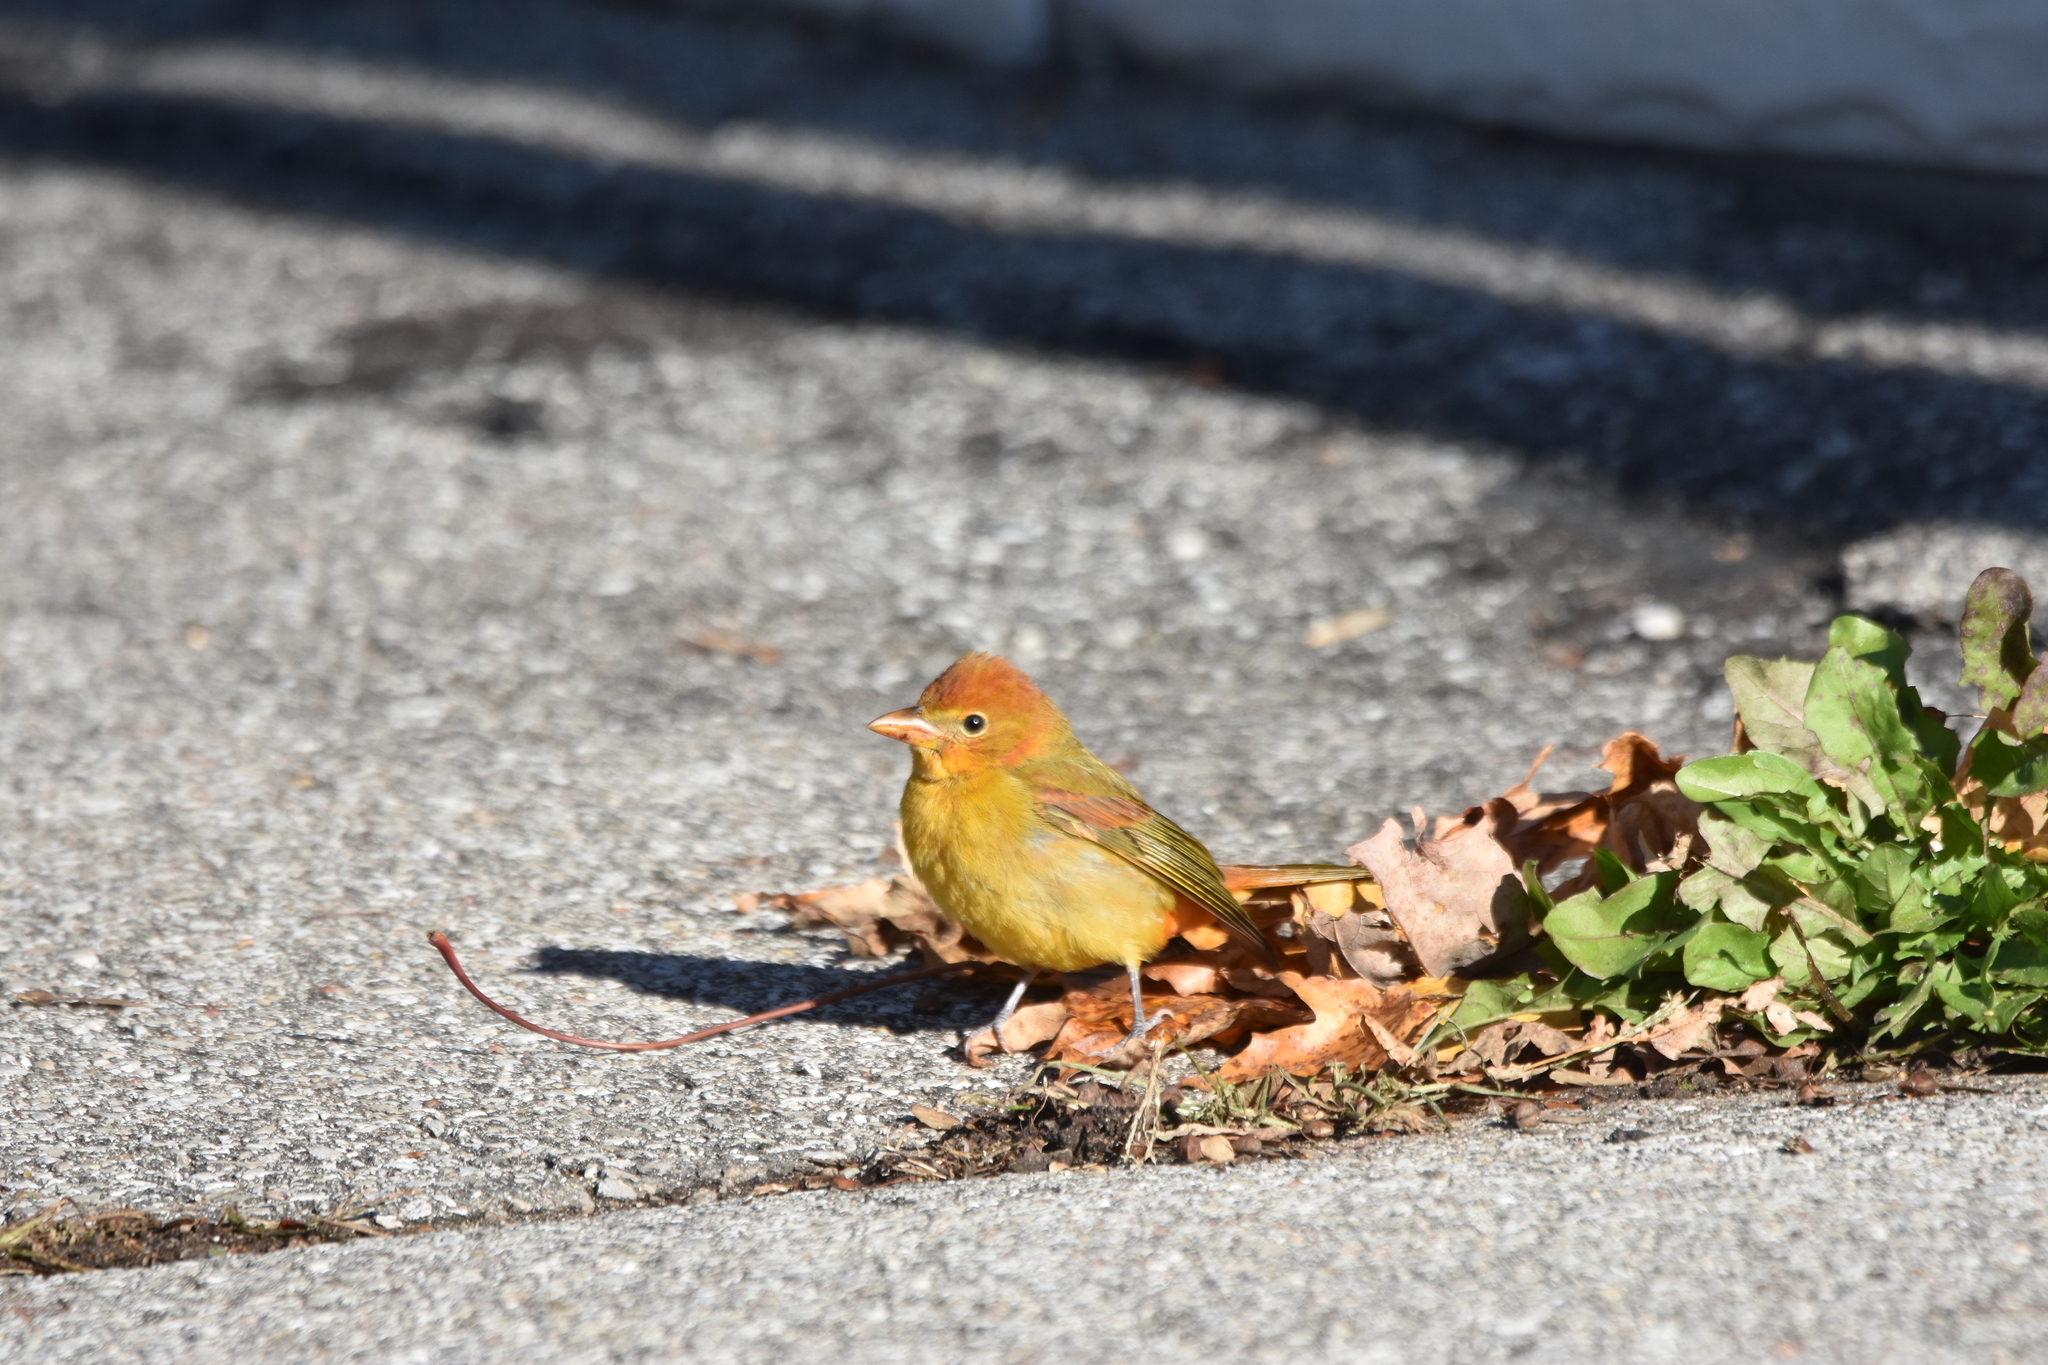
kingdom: Animalia
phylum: Chordata
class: Aves
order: Passeriformes
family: Cardinalidae
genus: Piranga
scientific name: Piranga rubra
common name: Summer tanager
